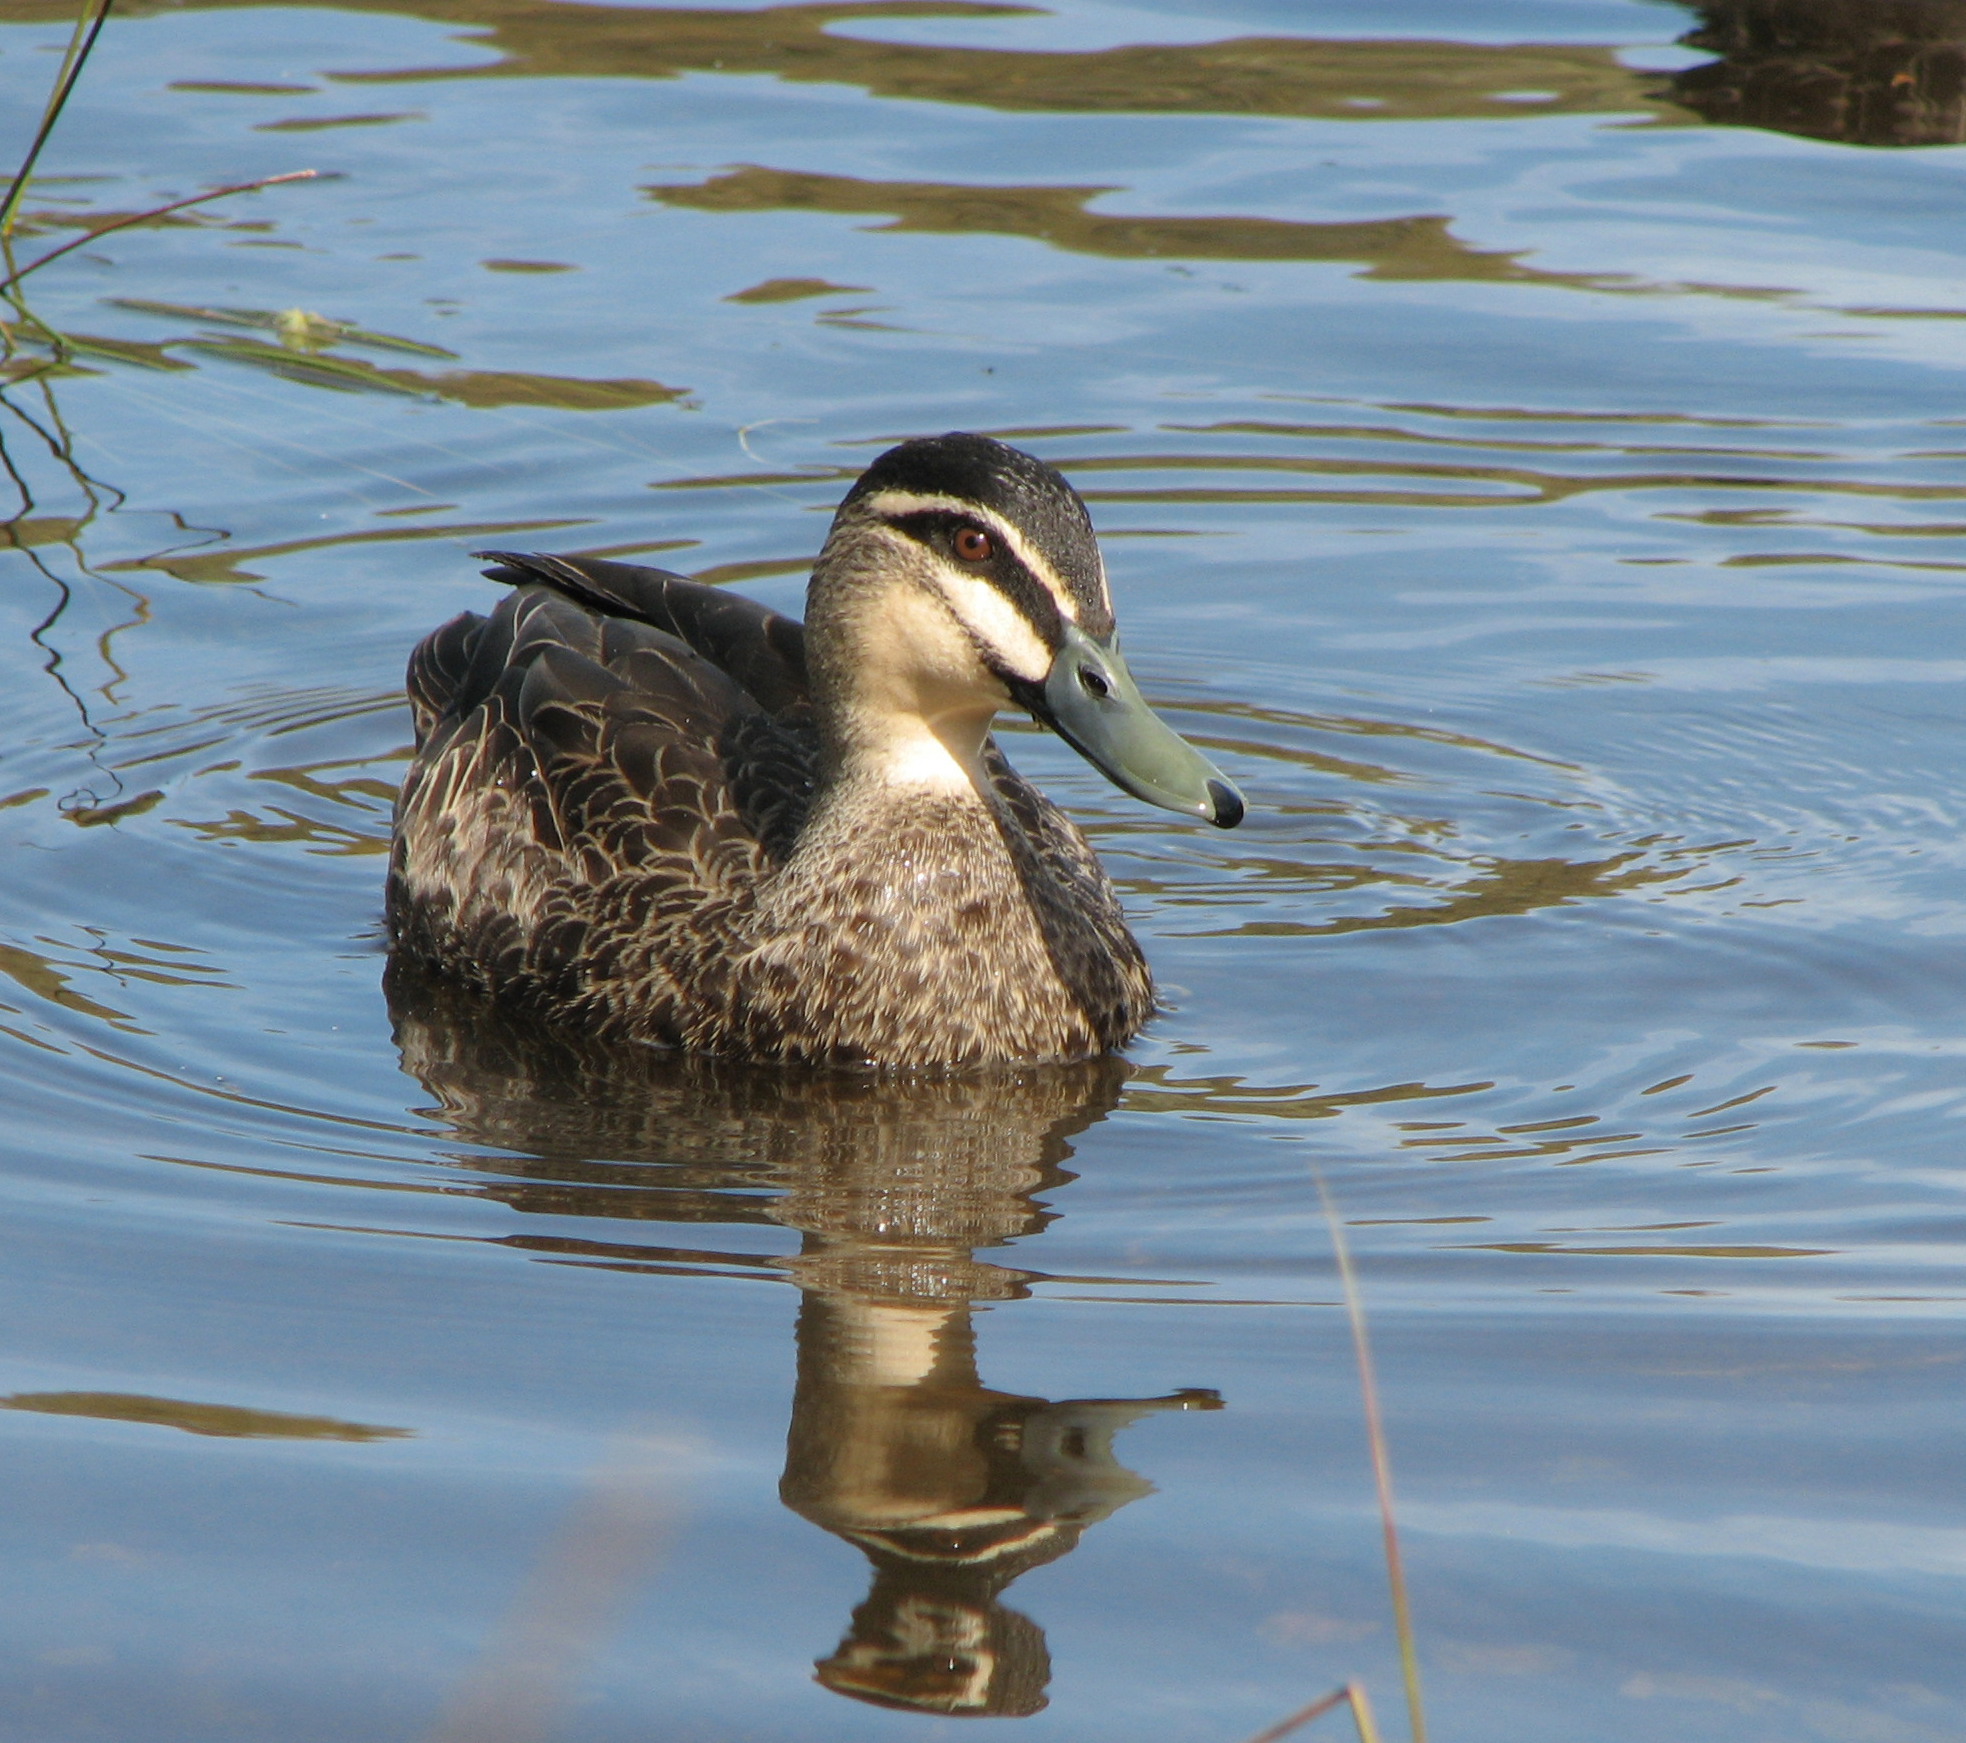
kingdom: Animalia
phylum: Chordata
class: Aves
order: Anseriformes
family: Anatidae
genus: Anas
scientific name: Anas superciliosa
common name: Pacific black duck
